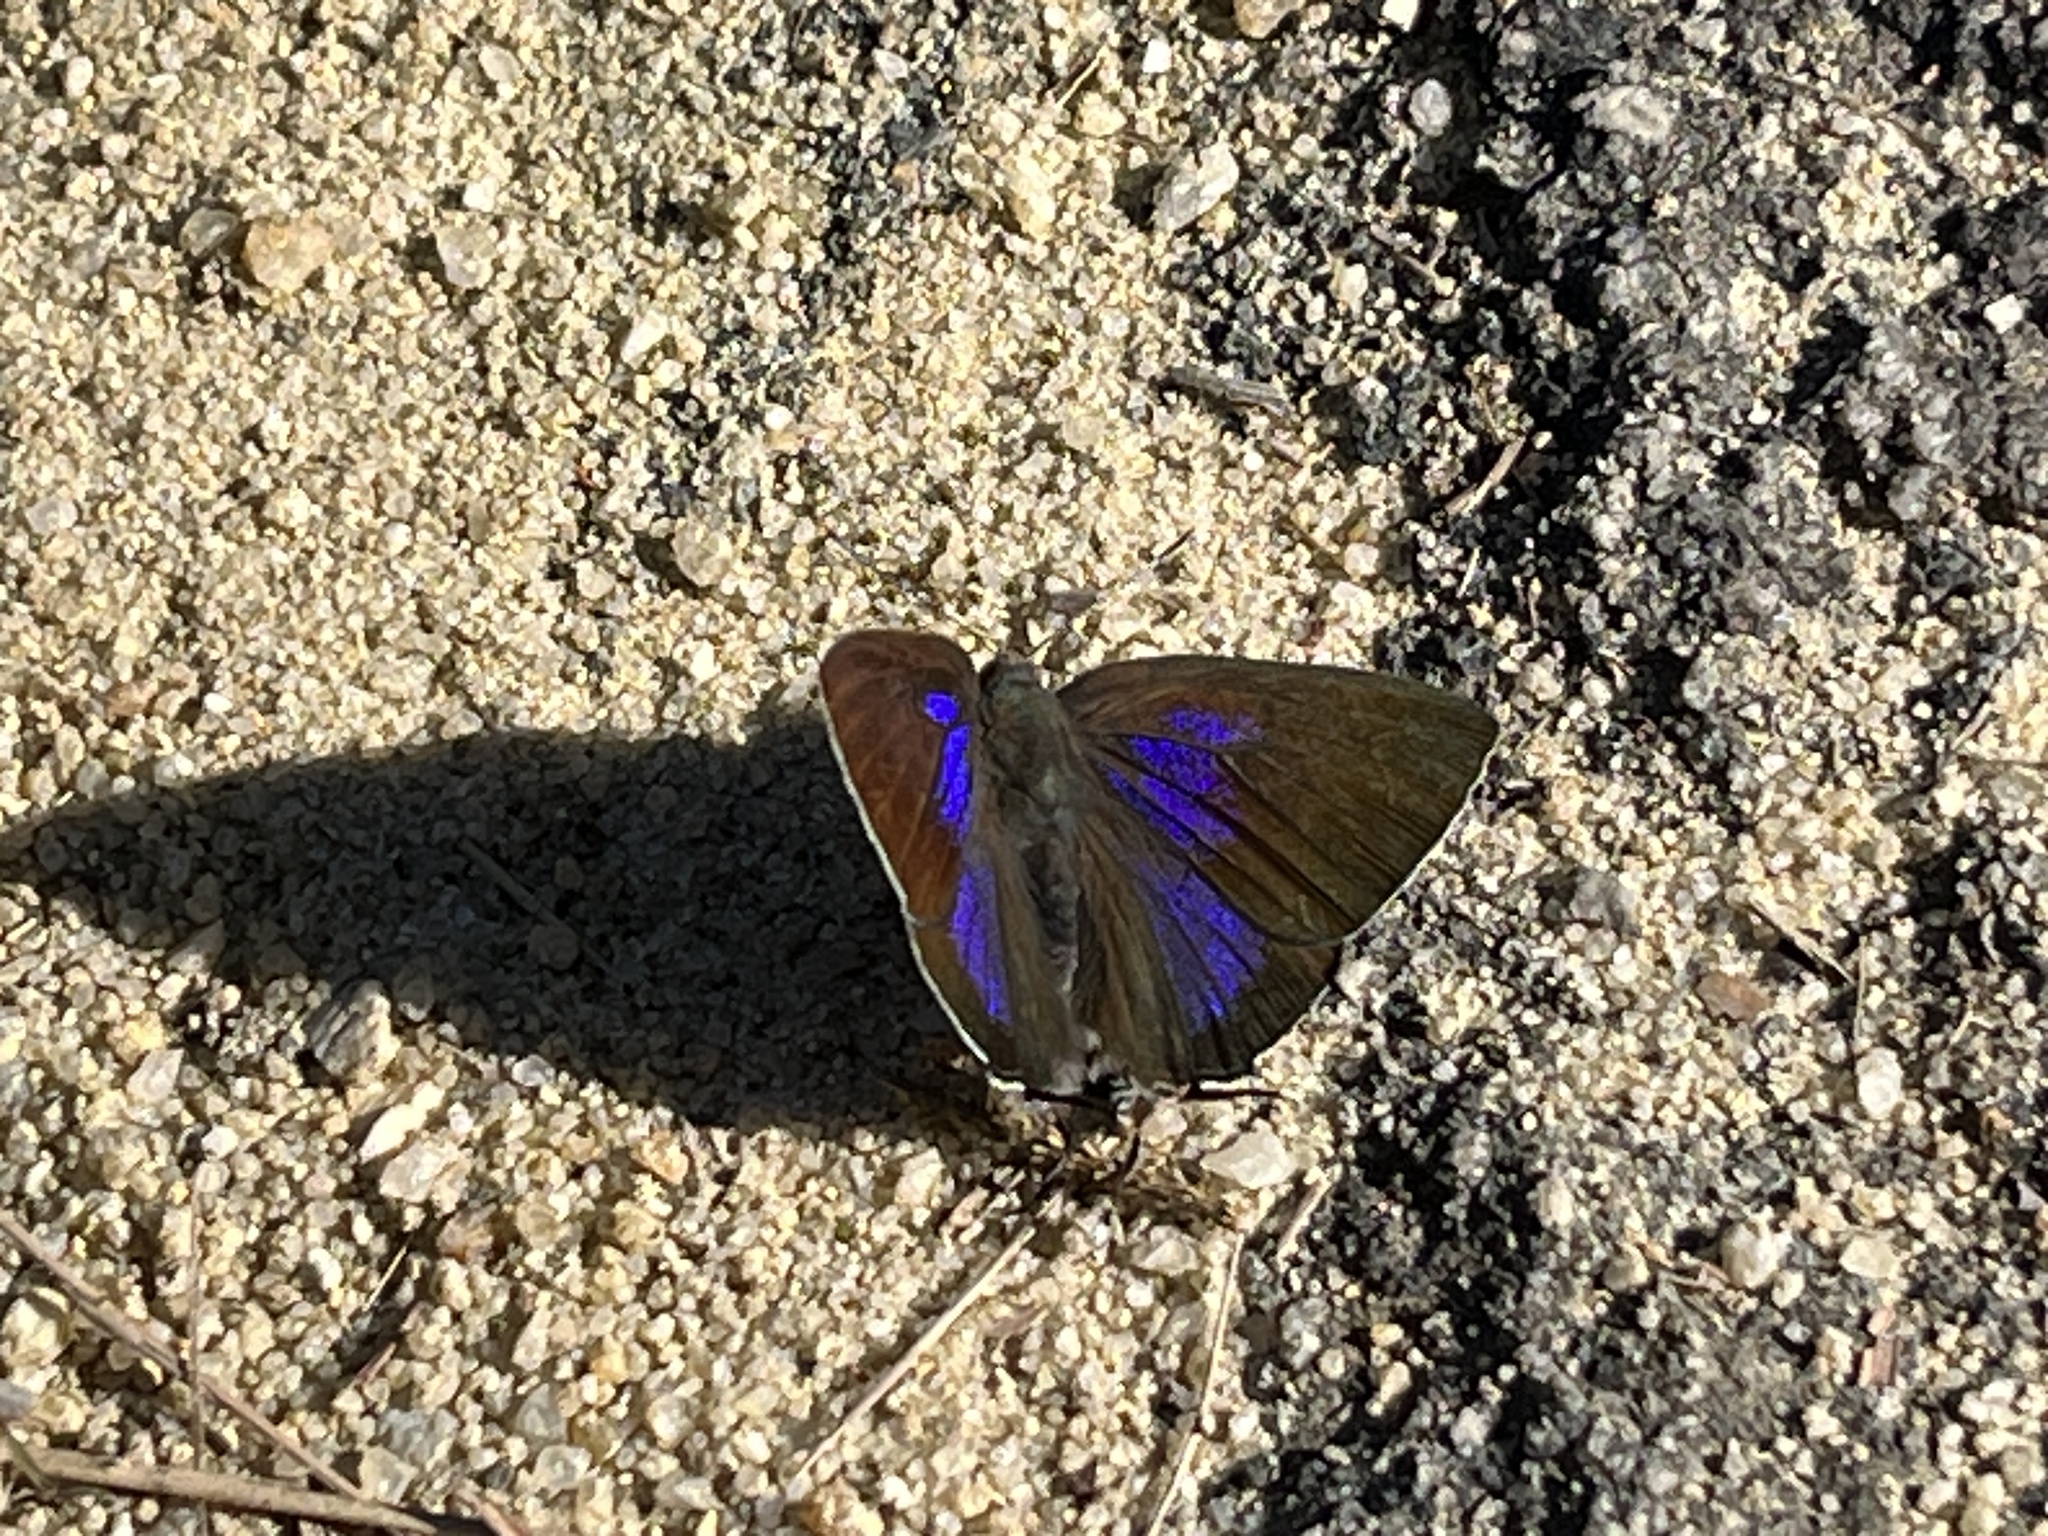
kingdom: Animalia
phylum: Arthropoda
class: Insecta
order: Lepidoptera
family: Lycaenidae
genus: Remelana
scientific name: Remelana jangala
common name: Chocolate royal
